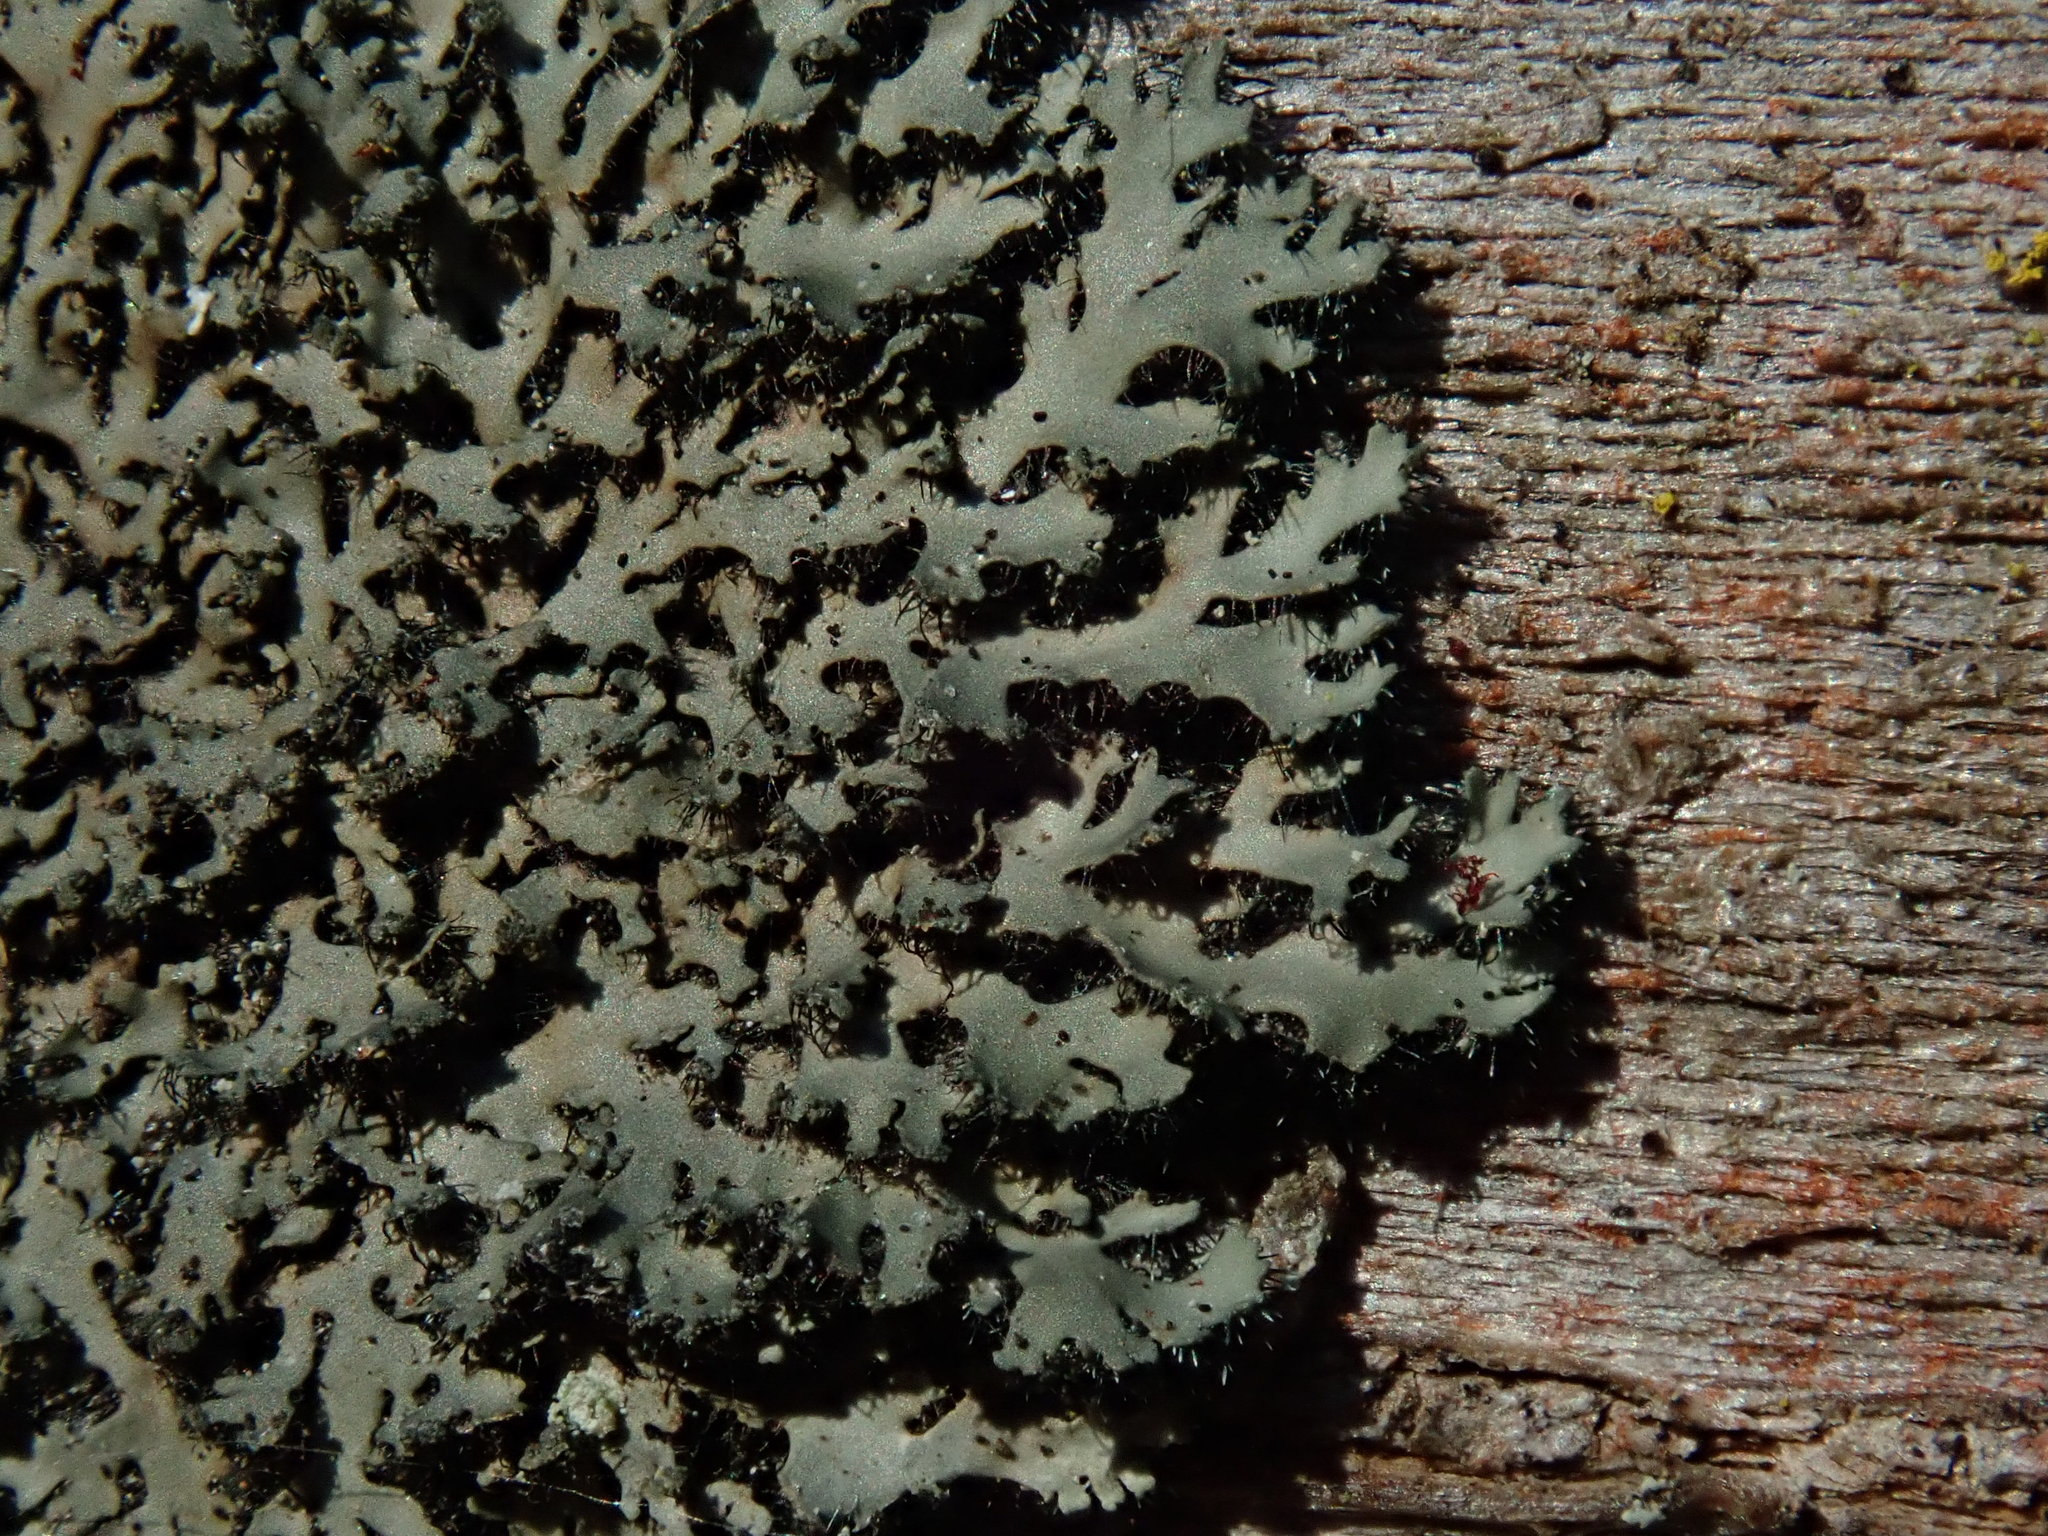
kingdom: Fungi
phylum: Ascomycota
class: Lecanoromycetes
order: Caliciales
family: Physciaceae
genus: Phaeophyscia
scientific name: Phaeophyscia rubropulchra
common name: Orange-cored shadow lichen
